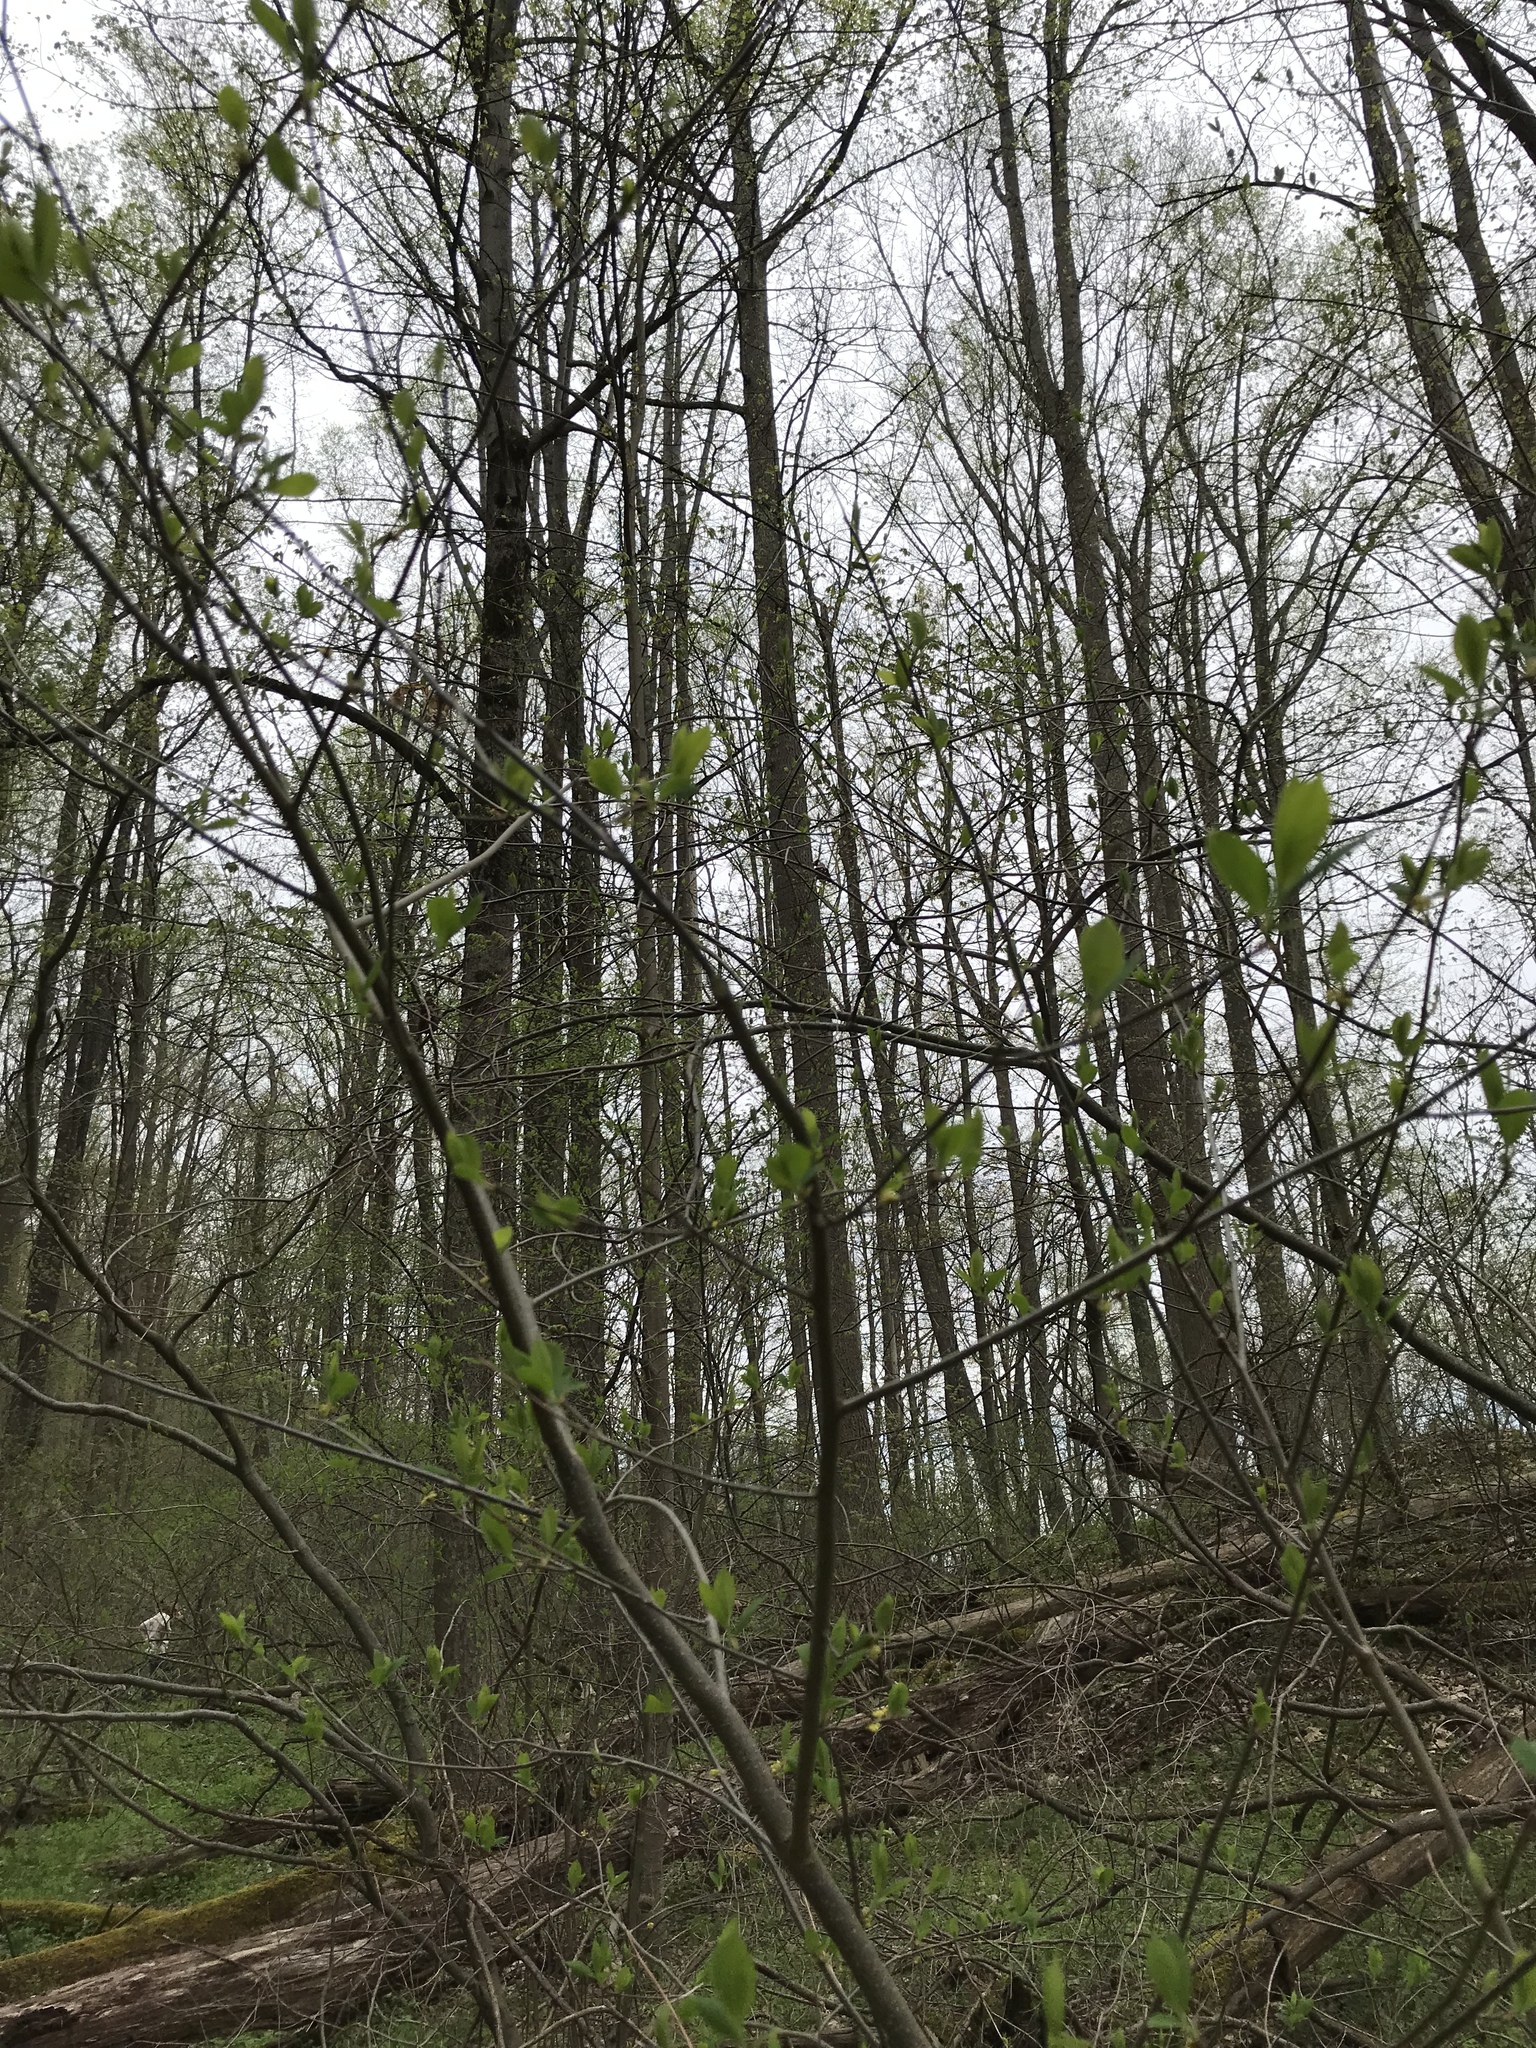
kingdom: Plantae
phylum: Tracheophyta
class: Magnoliopsida
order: Laurales
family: Lauraceae
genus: Lindera
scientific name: Lindera benzoin
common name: Spicebush
